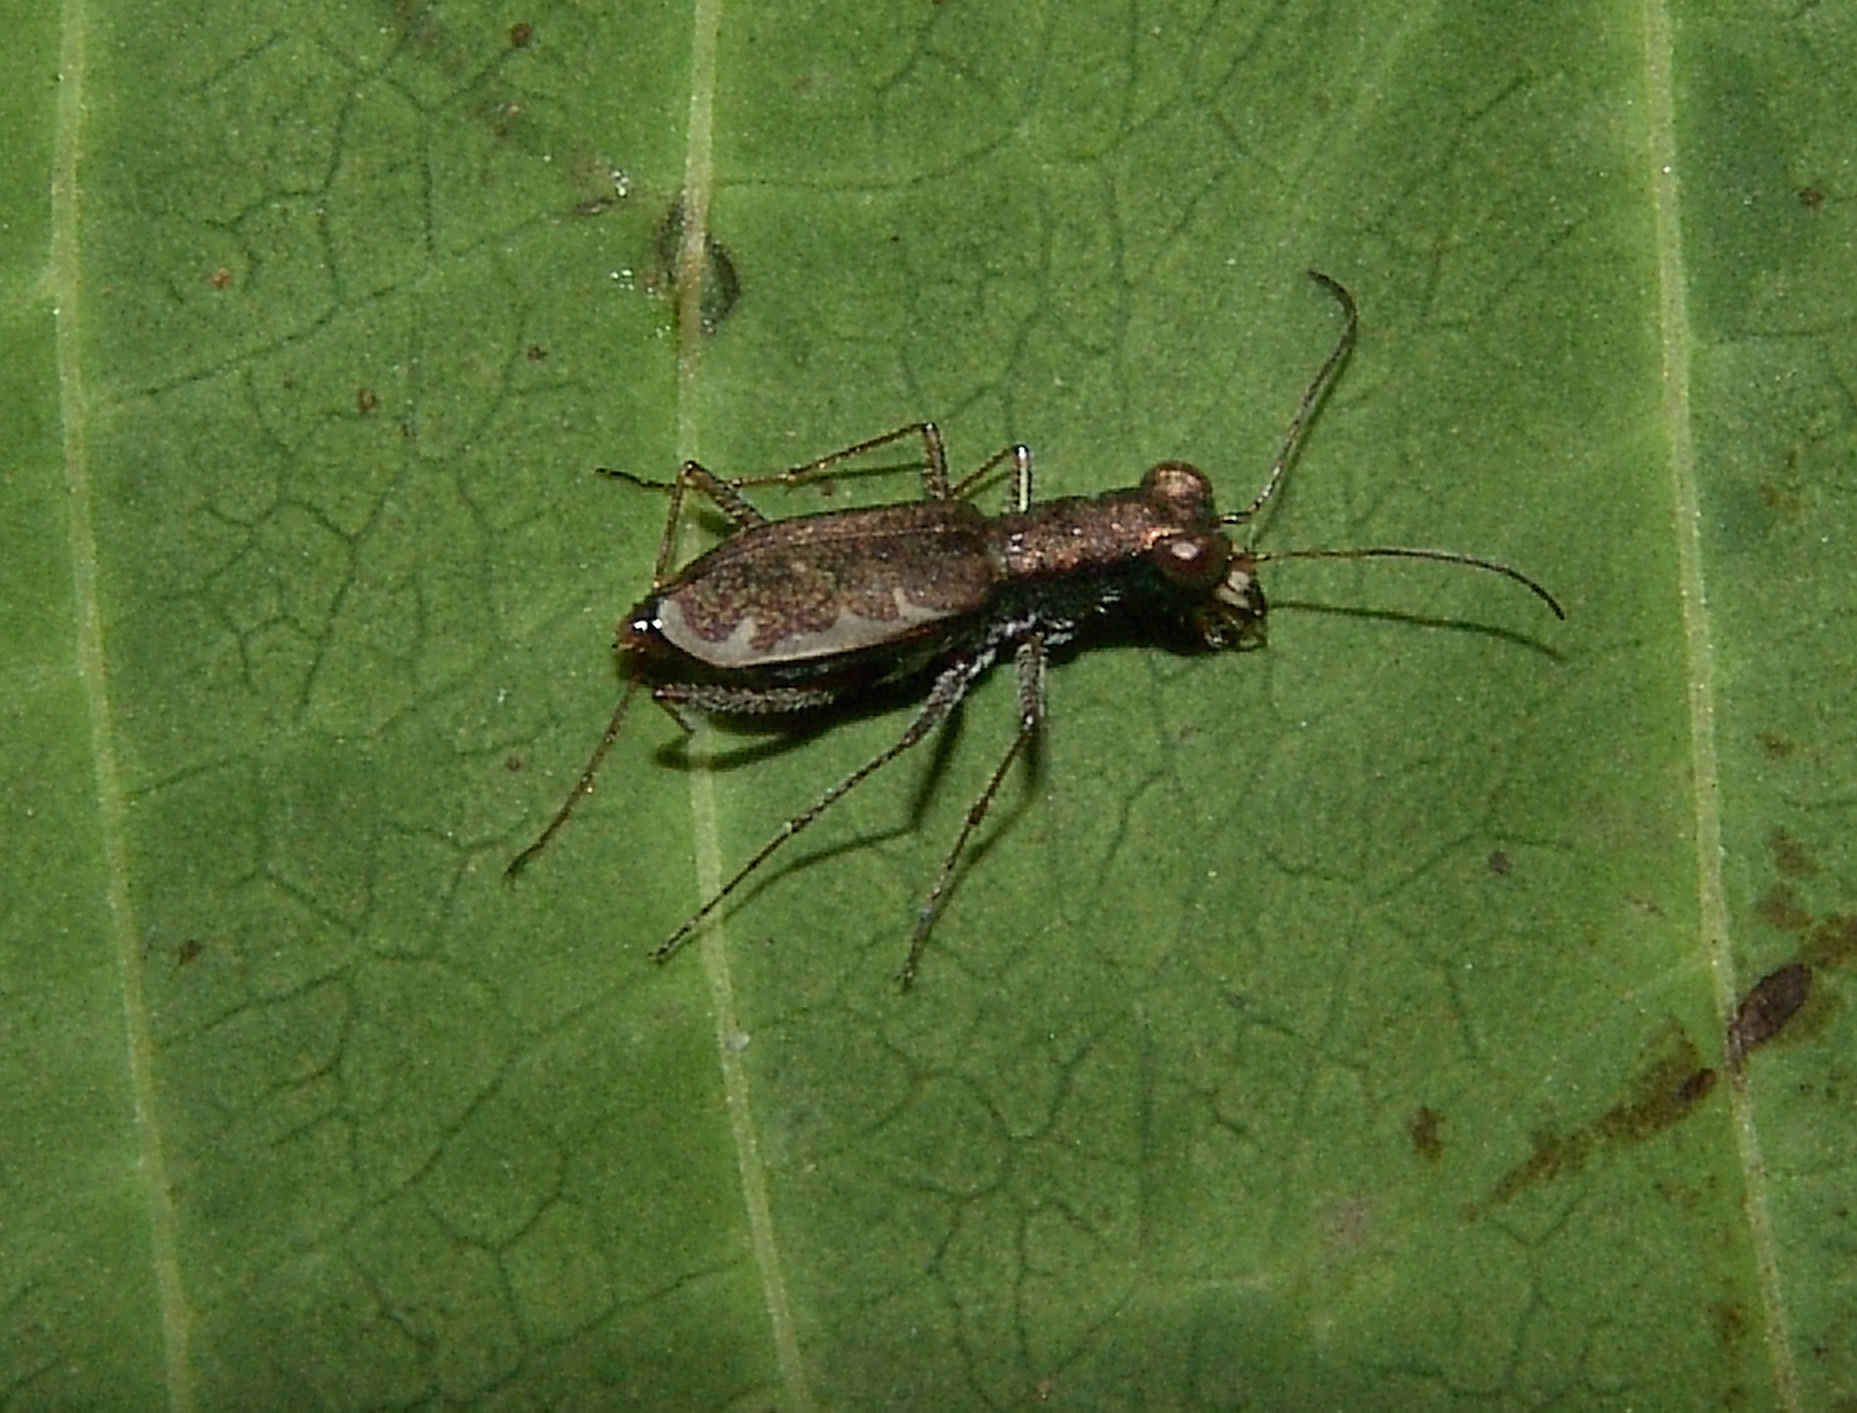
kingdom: Animalia
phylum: Arthropoda
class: Insecta
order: Coleoptera
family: Carabidae
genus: Cylindera
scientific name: Cylindera cursitans
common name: Ant-like tiger beetle
